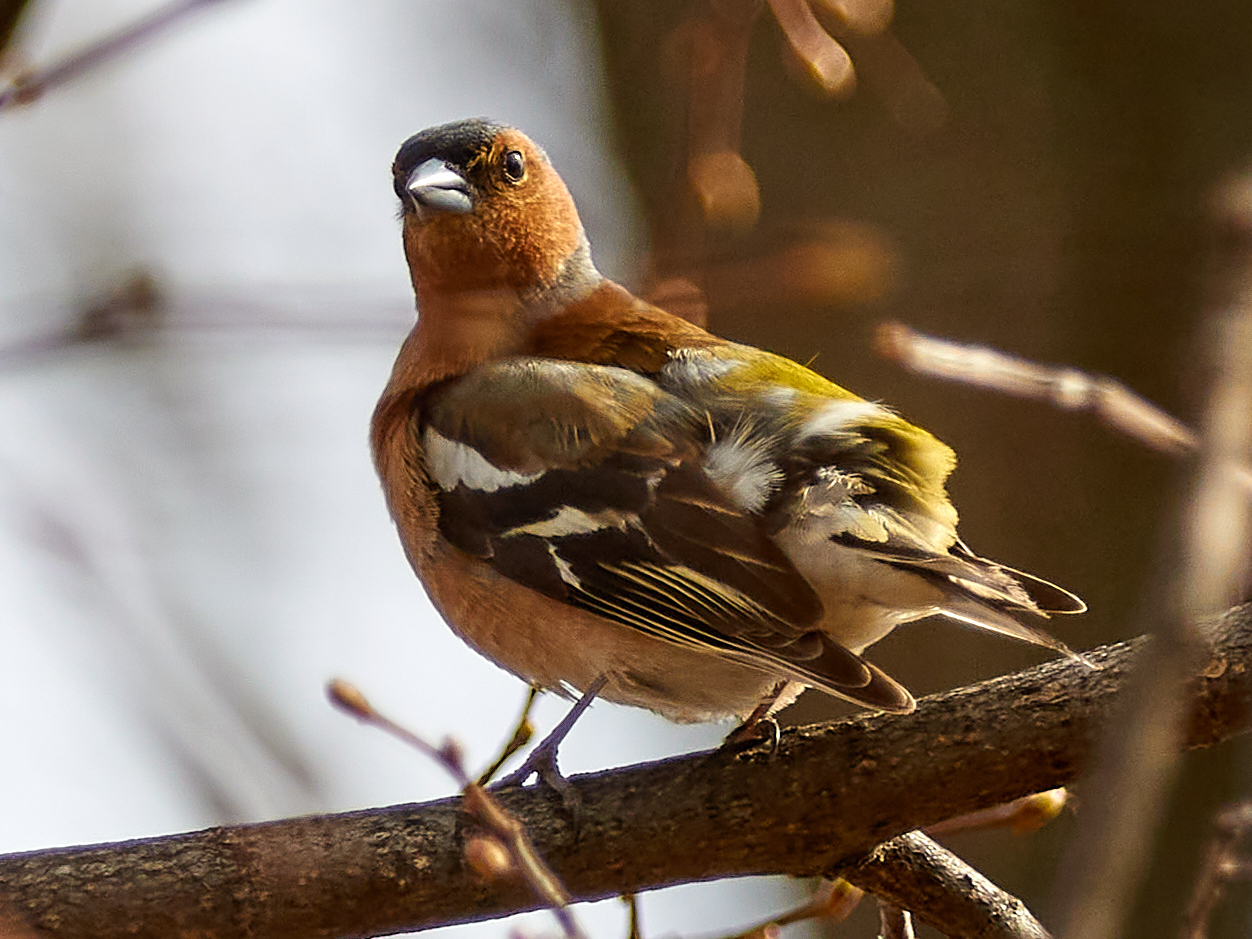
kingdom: Animalia
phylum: Chordata
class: Aves
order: Passeriformes
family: Fringillidae
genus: Fringilla
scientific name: Fringilla coelebs
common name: Common chaffinch
